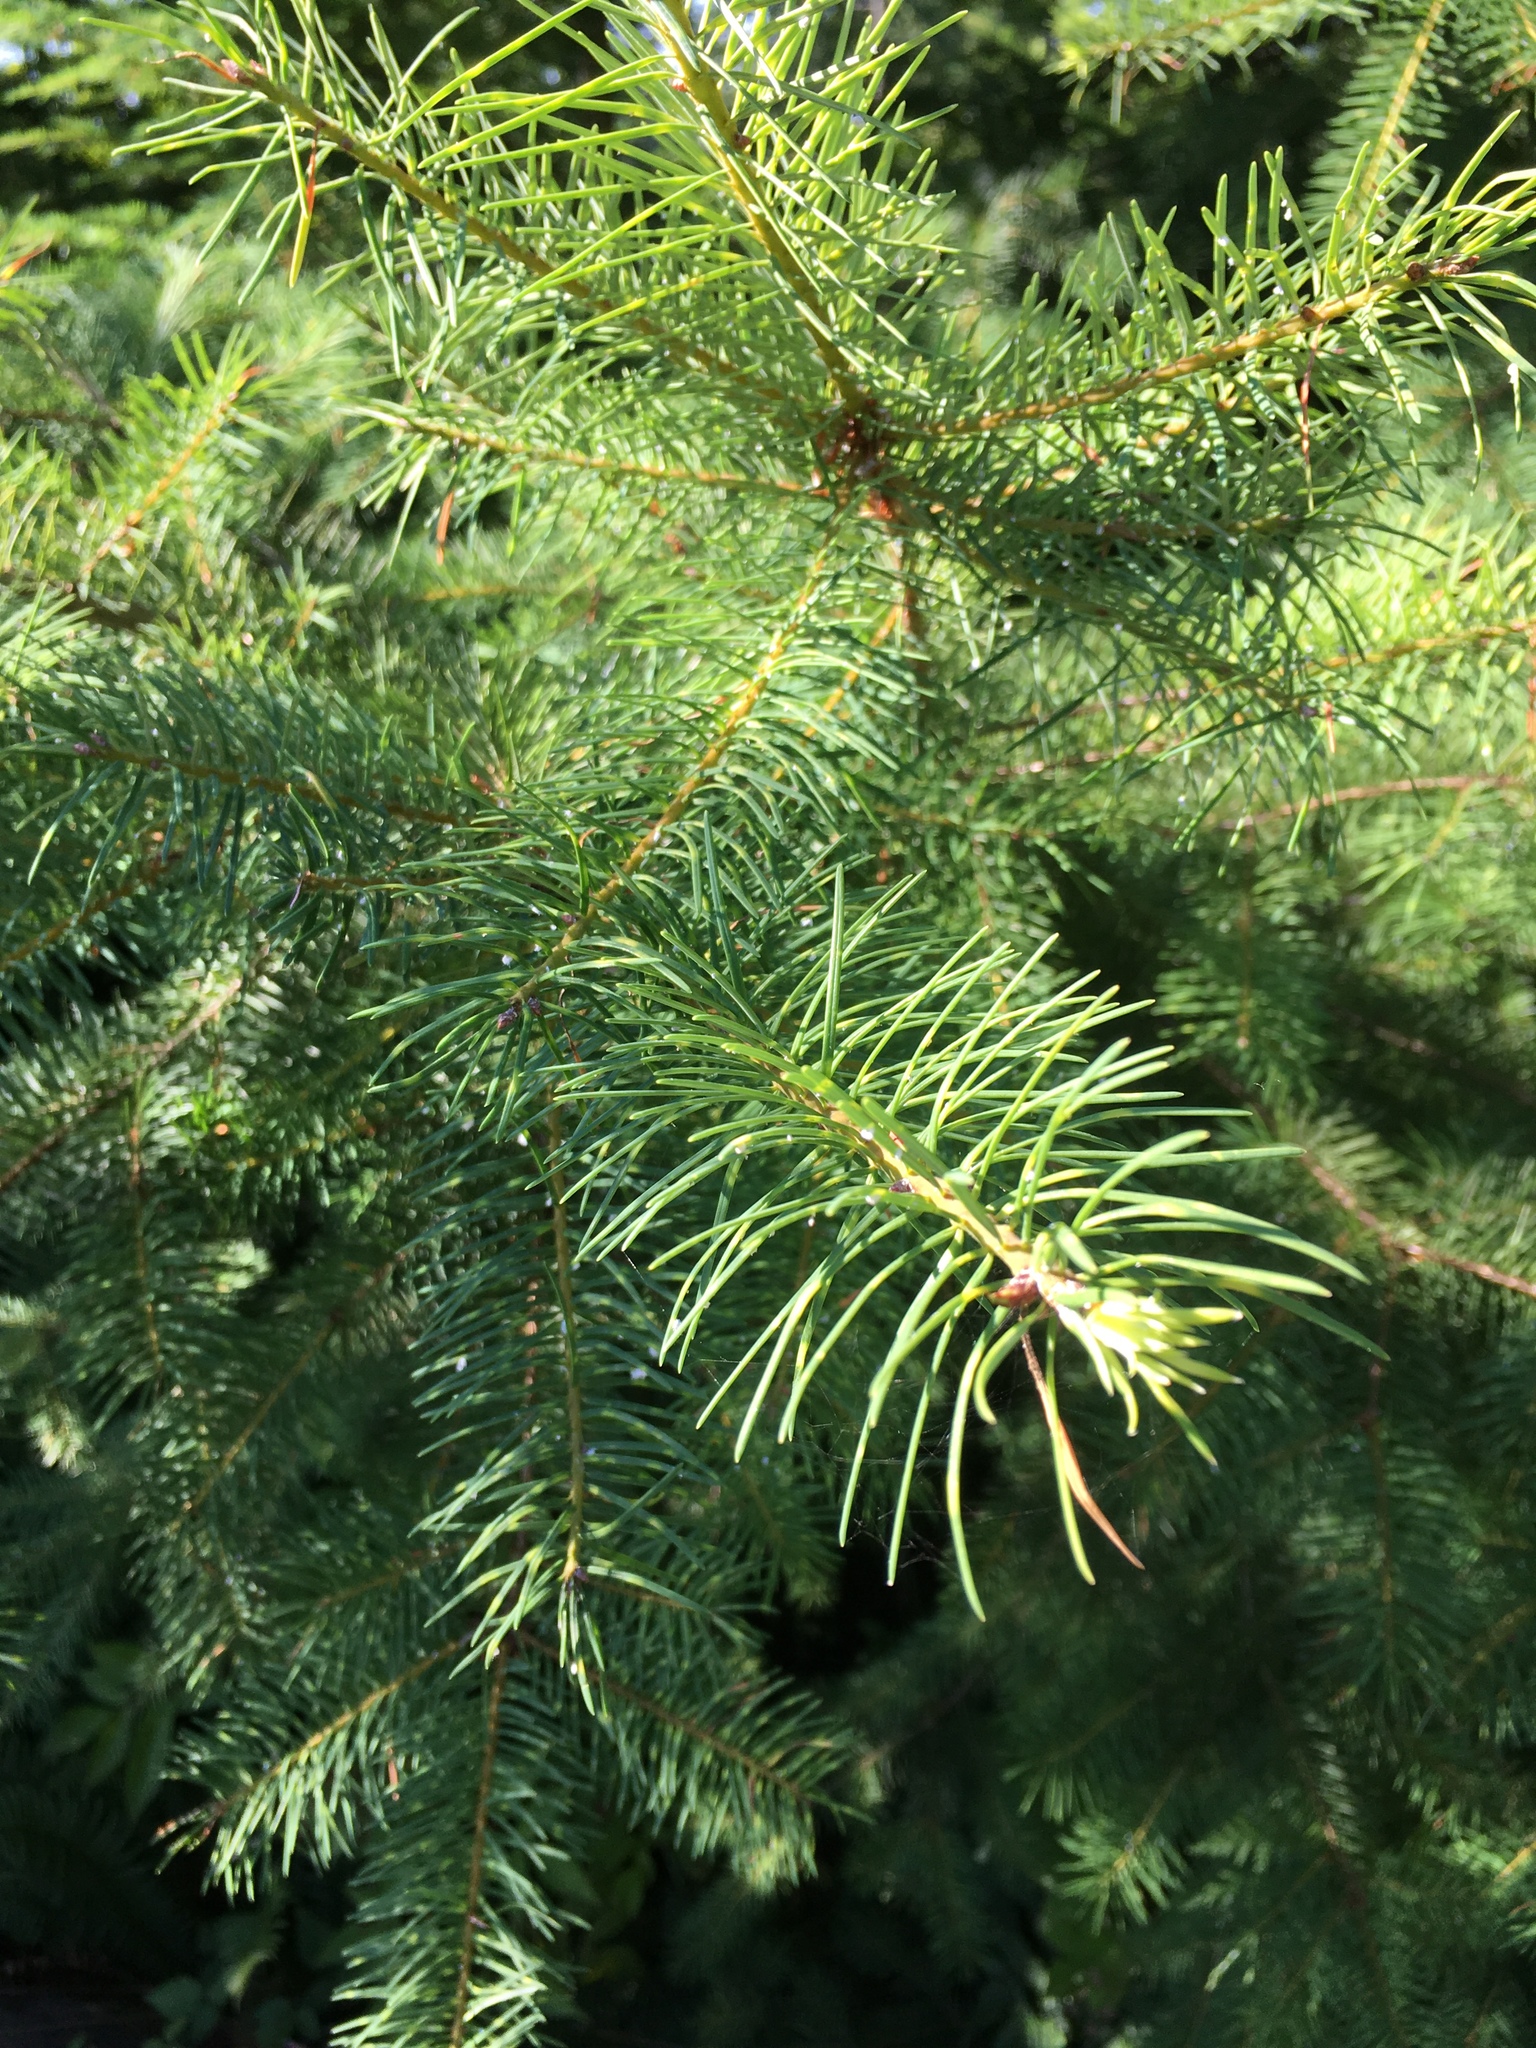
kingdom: Plantae
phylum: Tracheophyta
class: Pinopsida
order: Pinales
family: Pinaceae
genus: Pseudotsuga
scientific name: Pseudotsuga menziesii
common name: Douglas fir
